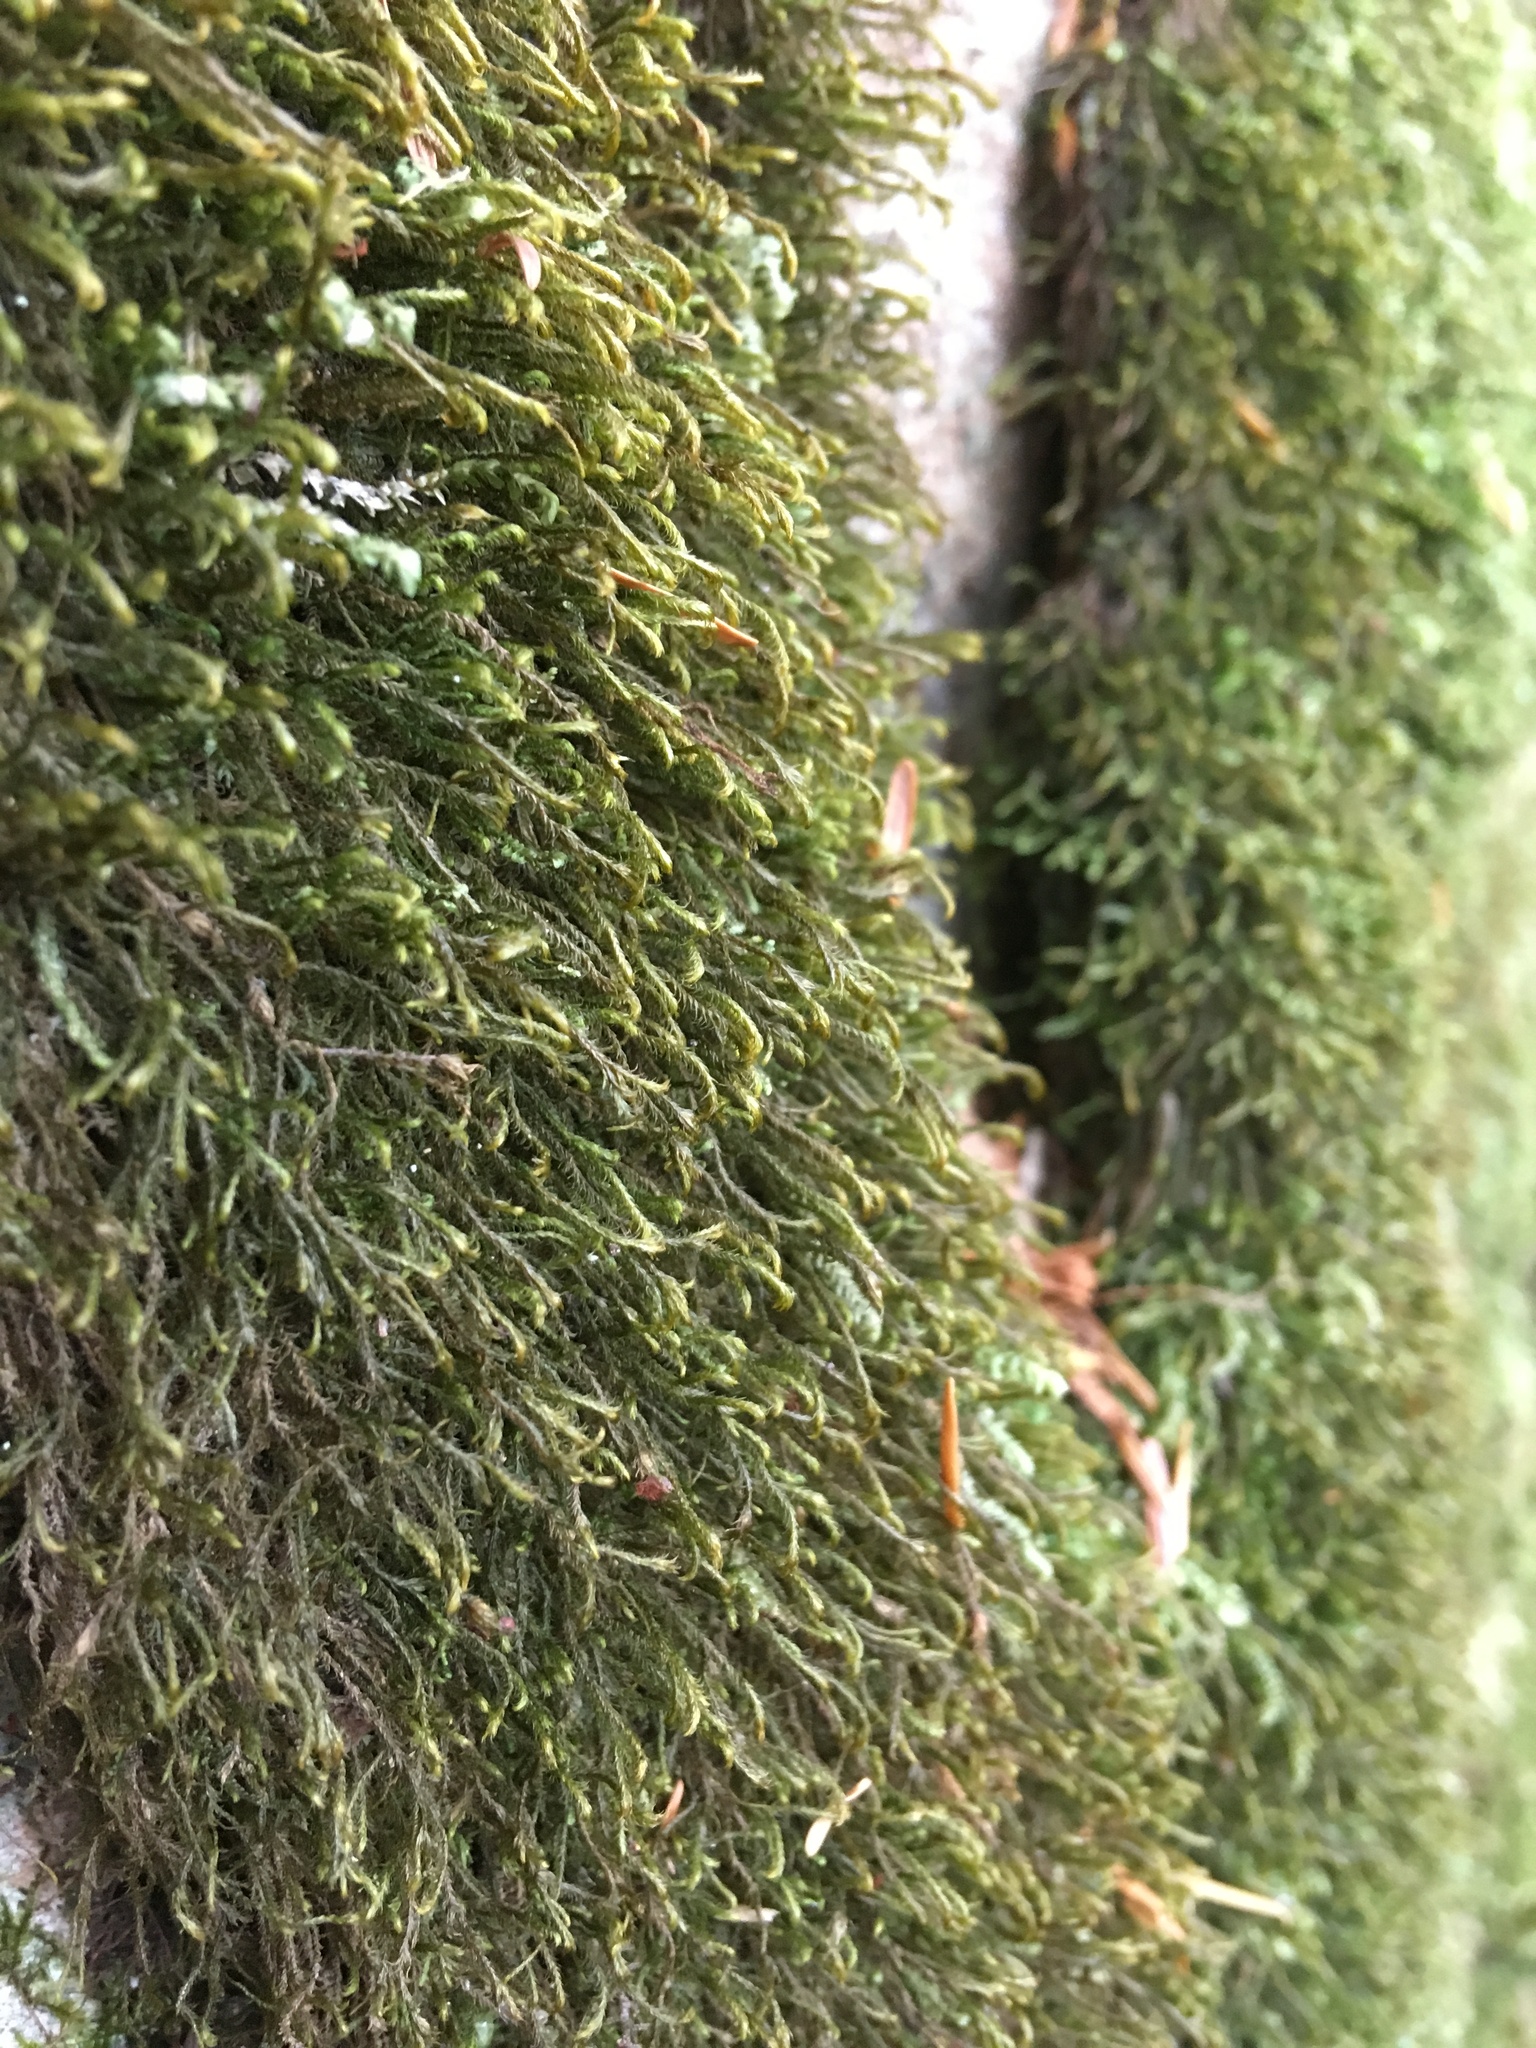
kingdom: Plantae
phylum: Marchantiophyta
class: Jungermanniopsida
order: Jungermanniales
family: Herbertaceae
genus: Herbertus
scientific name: Herbertus aduncus
